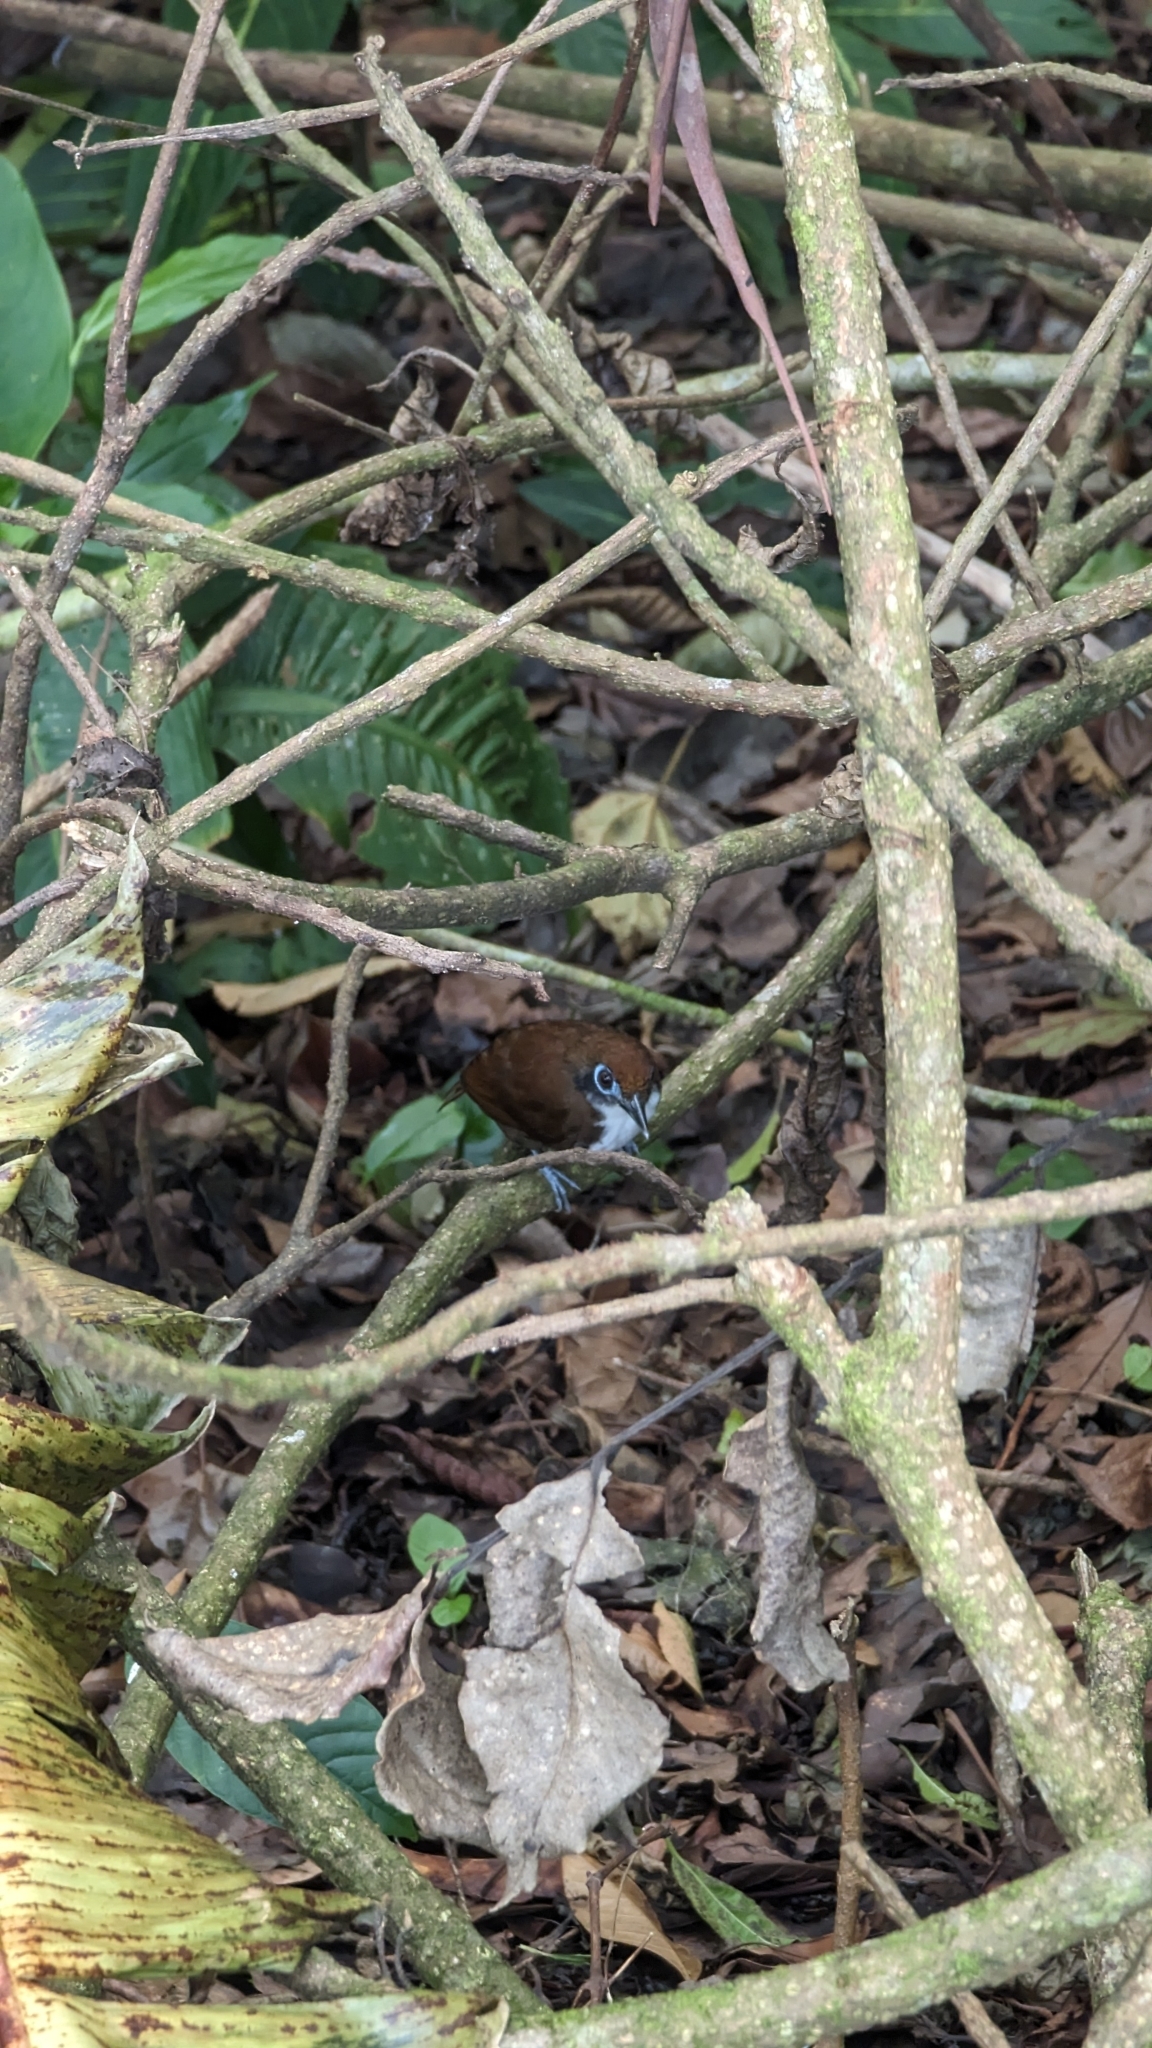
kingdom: Animalia
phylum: Chordata
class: Aves
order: Passeriformes
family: Thamnophilidae
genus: Gymnopithys
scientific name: Gymnopithys leucaspis
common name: White-cheeked antbird
